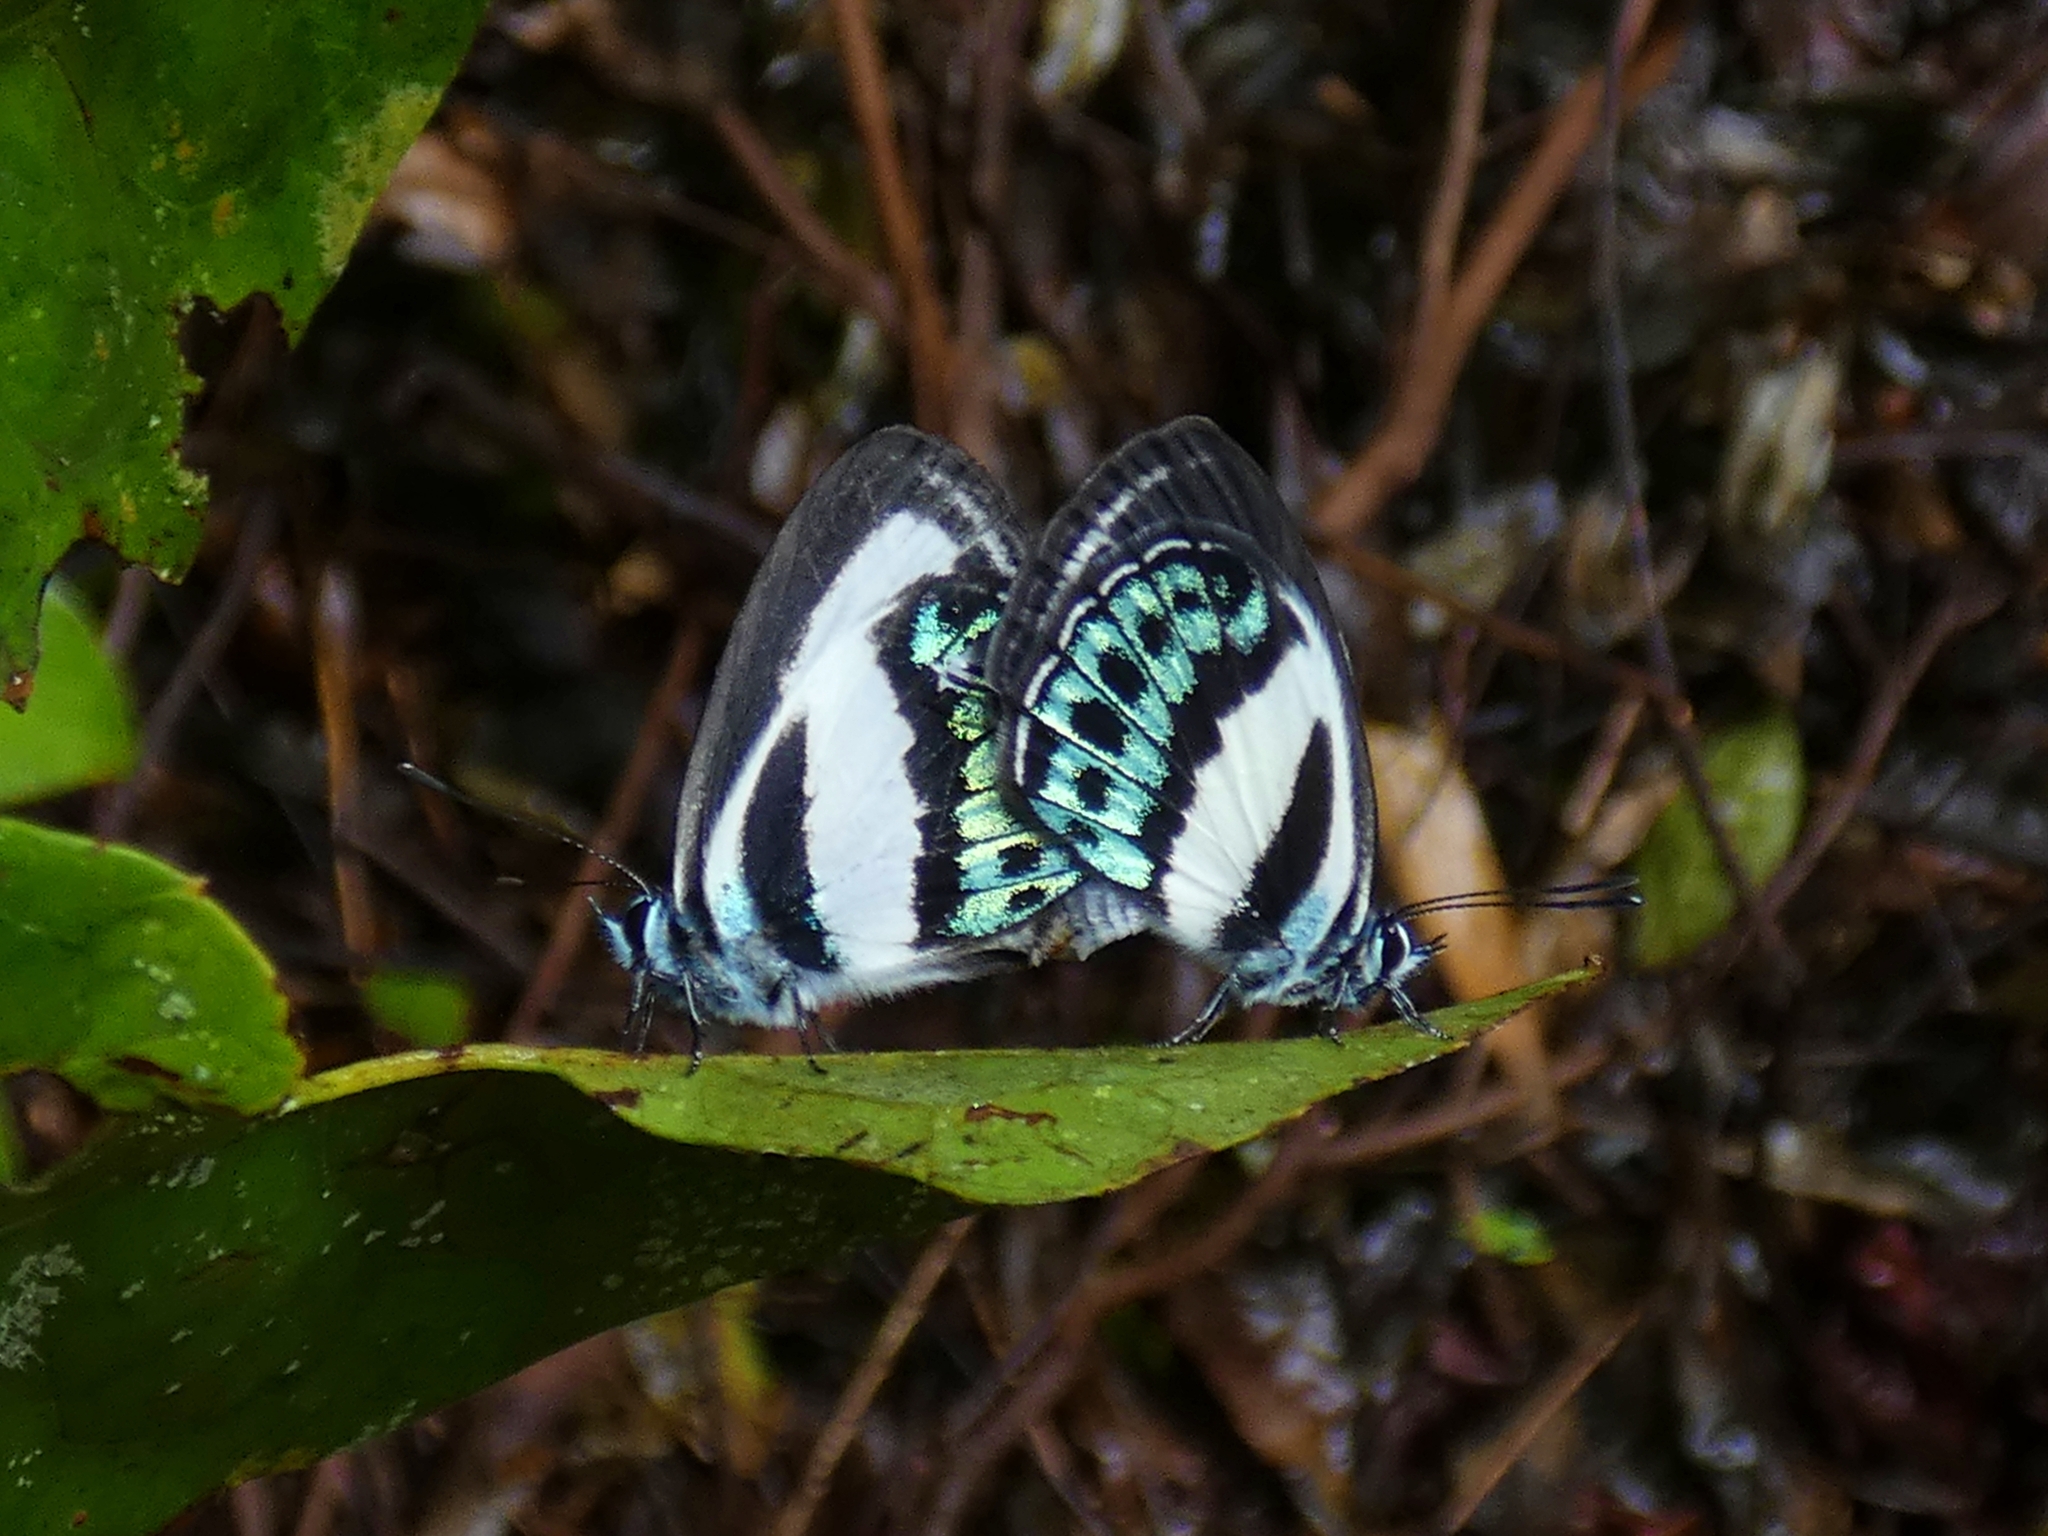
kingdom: Animalia
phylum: Arthropoda
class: Insecta
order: Lepidoptera
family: Lycaenidae
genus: Nacaduba
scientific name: Nacaduba cyanea
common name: Tailed green-banded line blue
